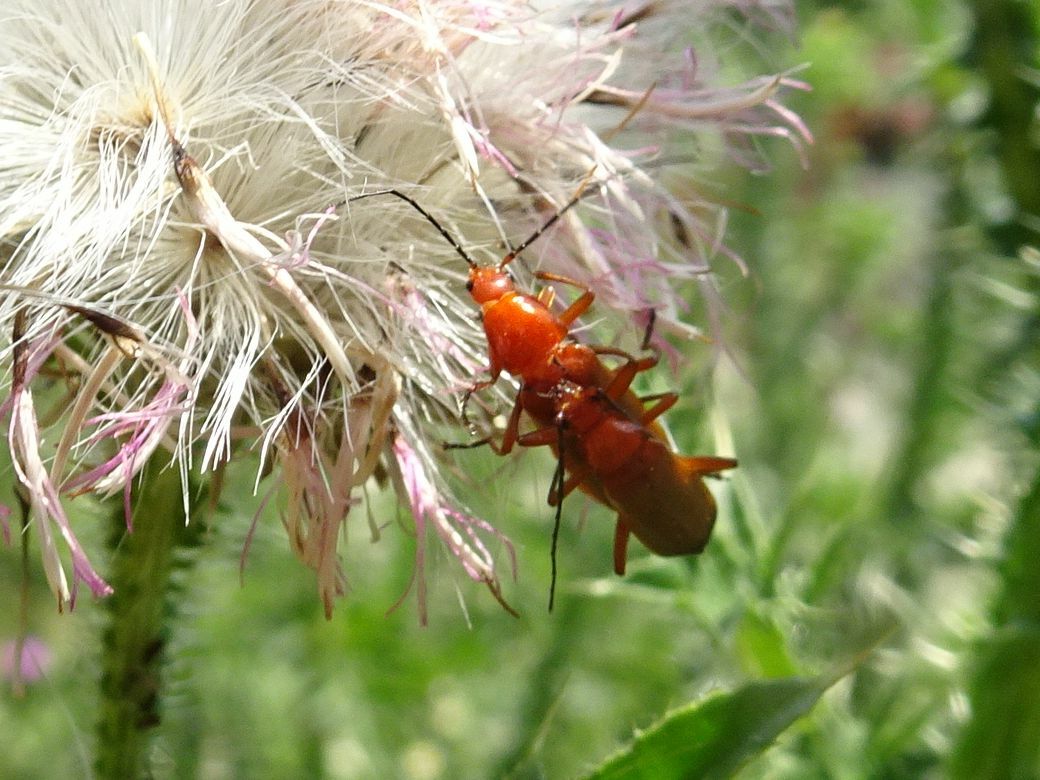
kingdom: Animalia
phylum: Arthropoda
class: Insecta
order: Coleoptera
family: Cantharidae
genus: Rhagonycha
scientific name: Rhagonycha fulva
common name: Common red soldier beetle
